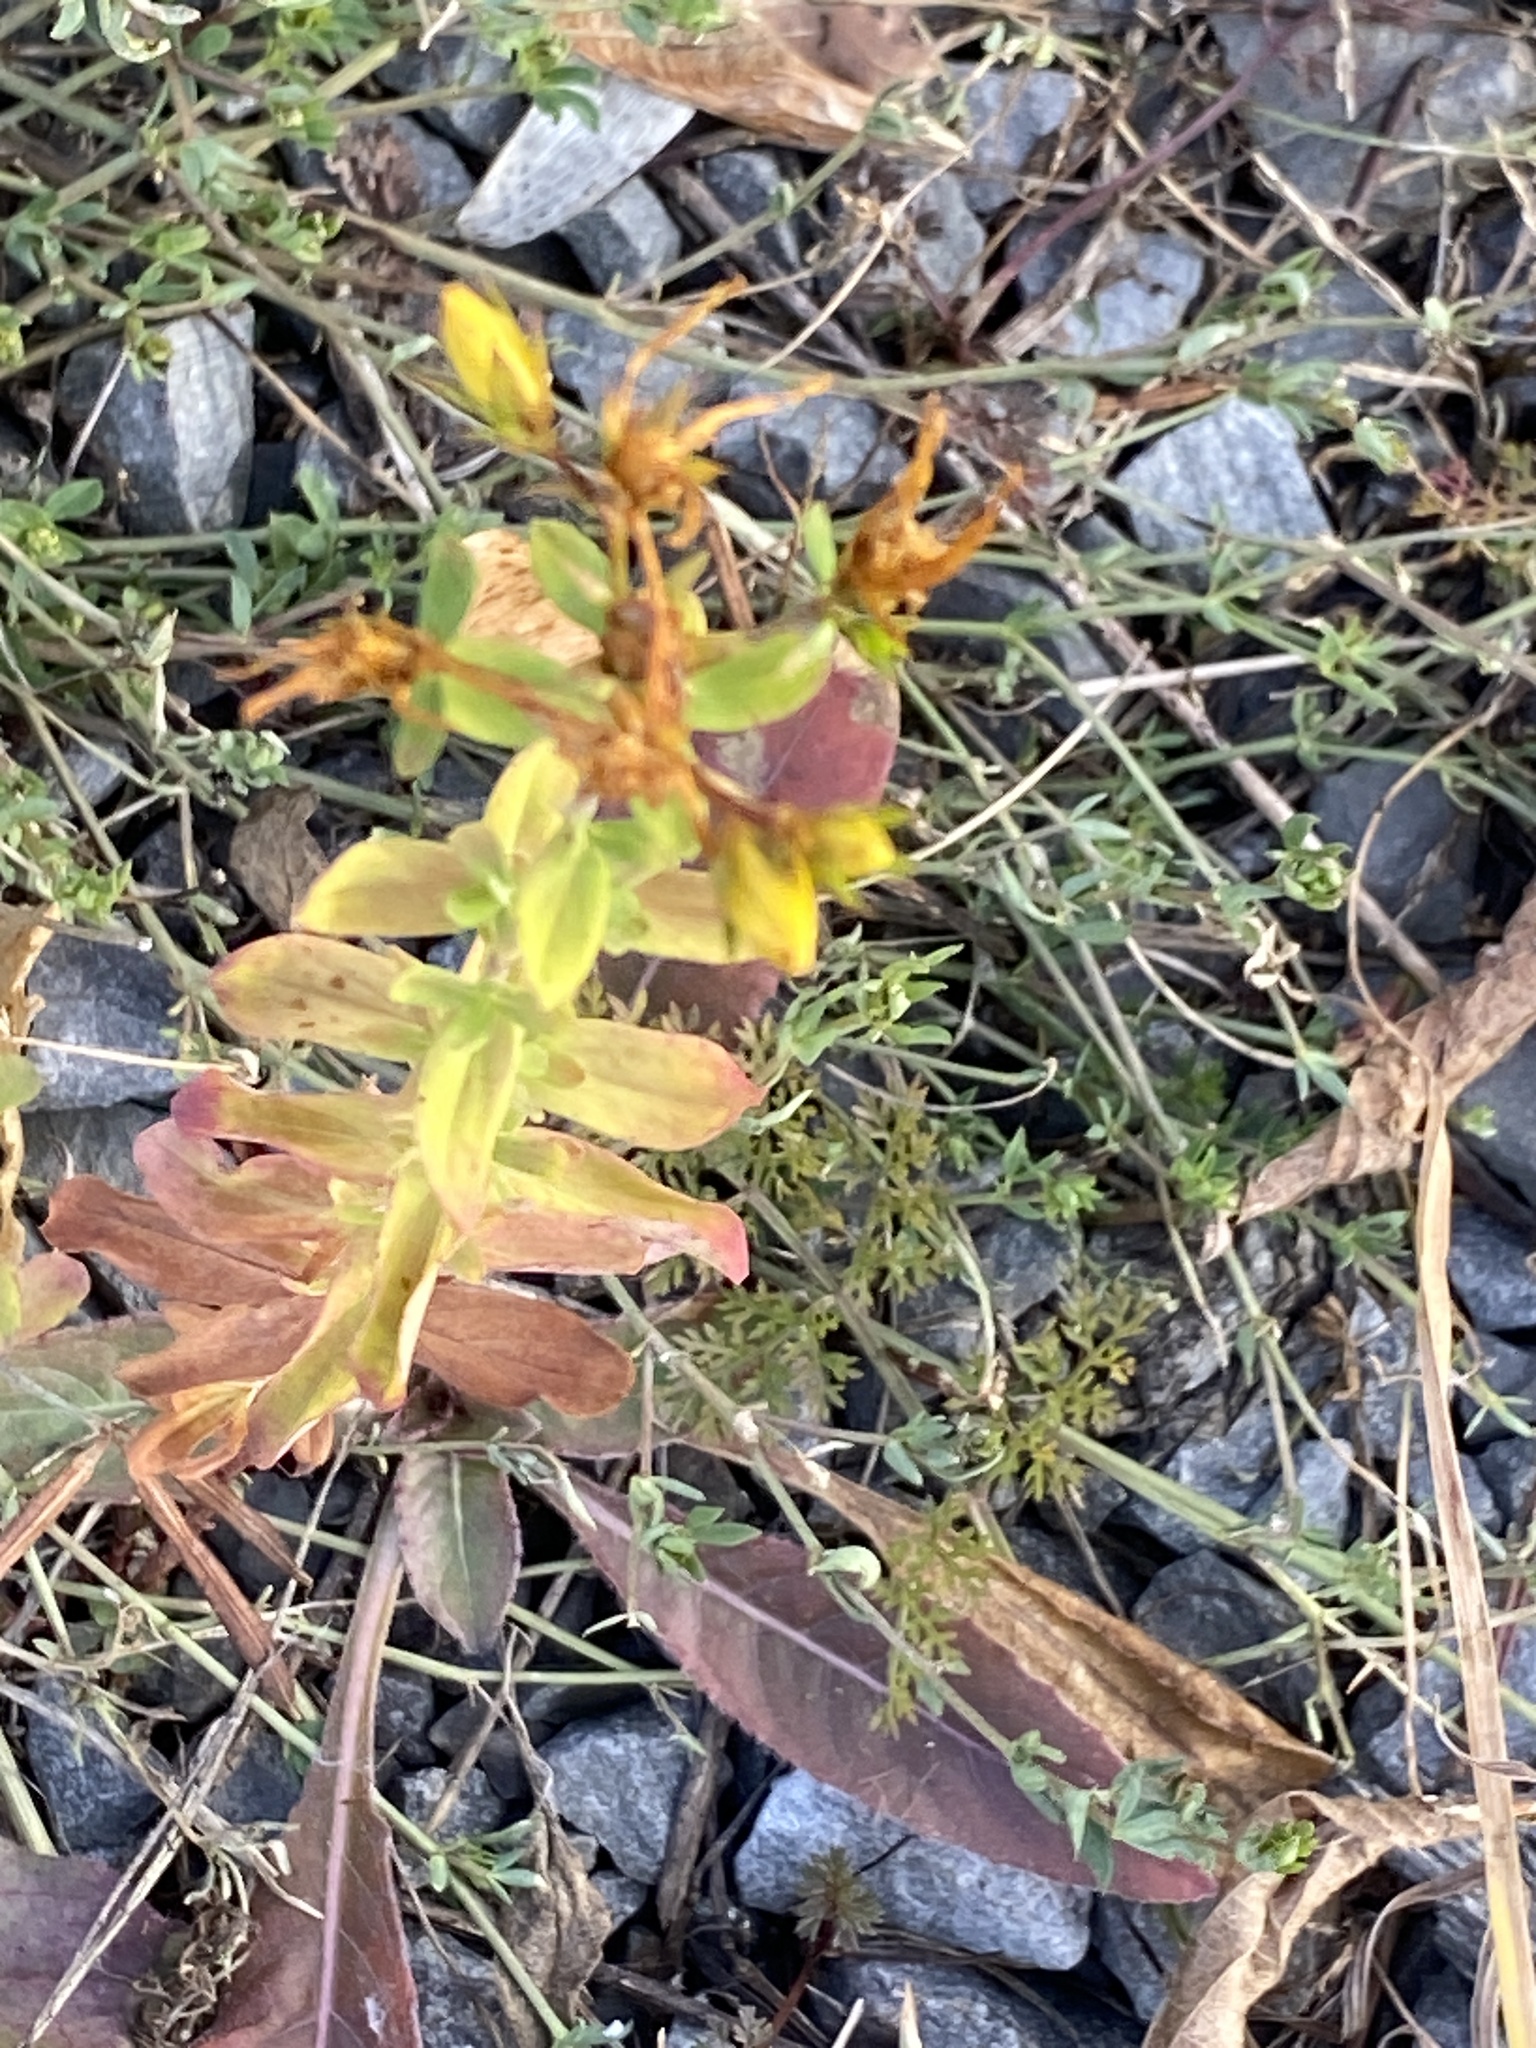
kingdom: Plantae
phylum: Tracheophyta
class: Magnoliopsida
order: Malpighiales
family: Hypericaceae
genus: Hypericum
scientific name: Hypericum perforatum
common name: Common st. johnswort
